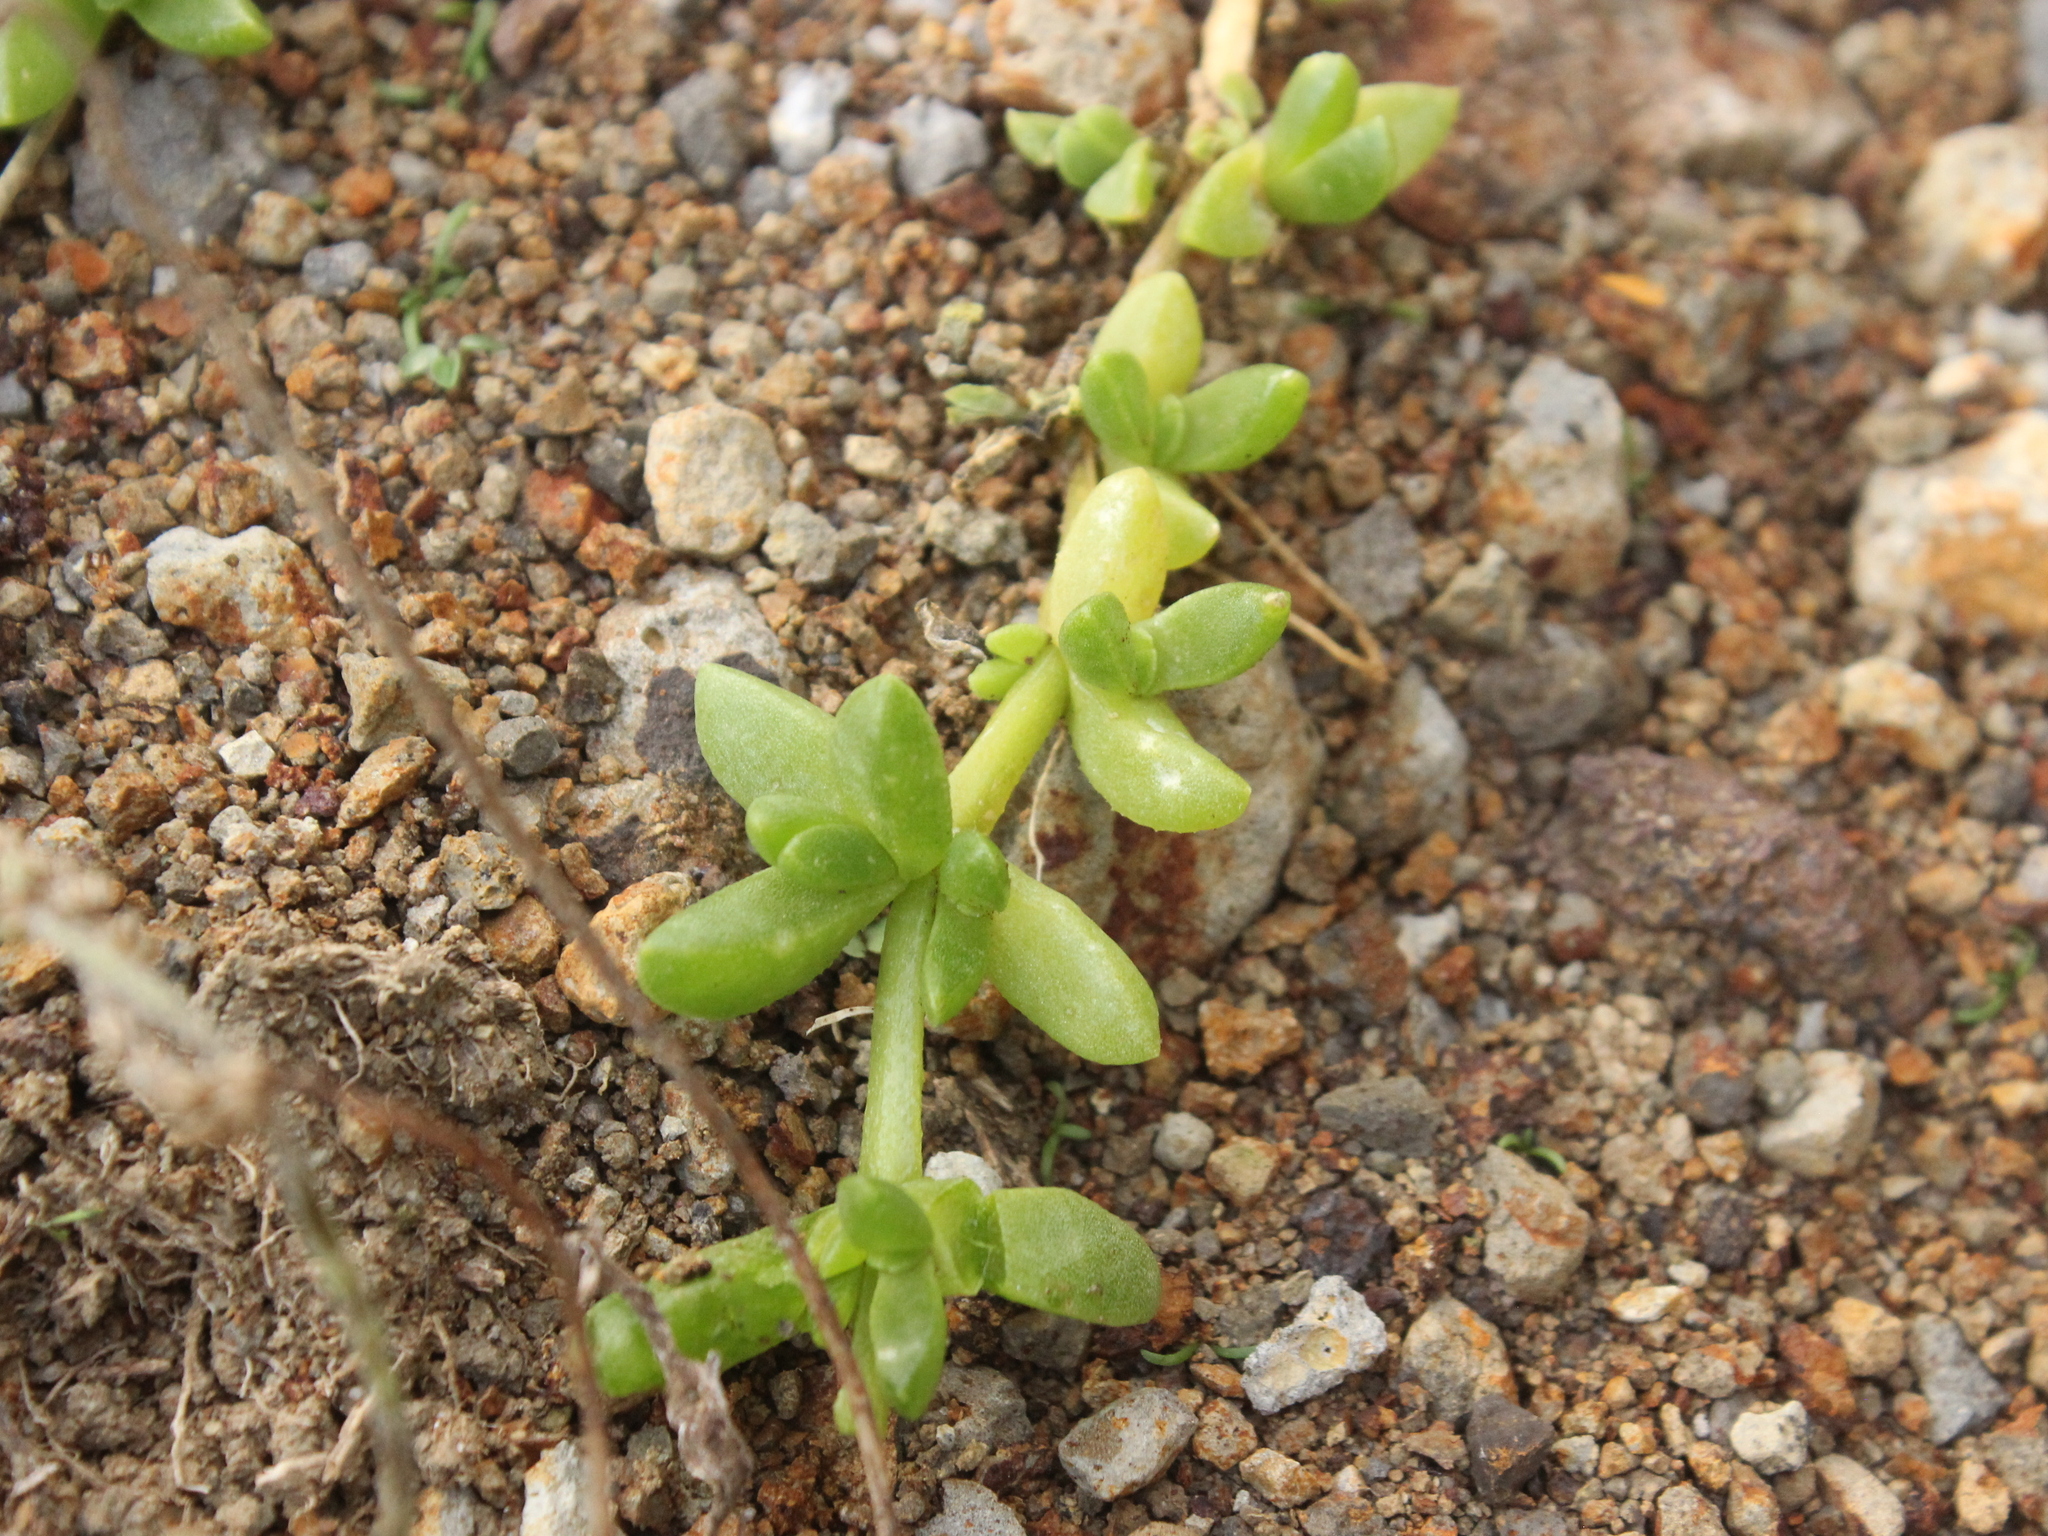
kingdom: Plantae
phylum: Tracheophyta
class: Magnoliopsida
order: Caryophyllales
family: Aizoaceae
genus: Disphyma
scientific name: Disphyma papillatum
